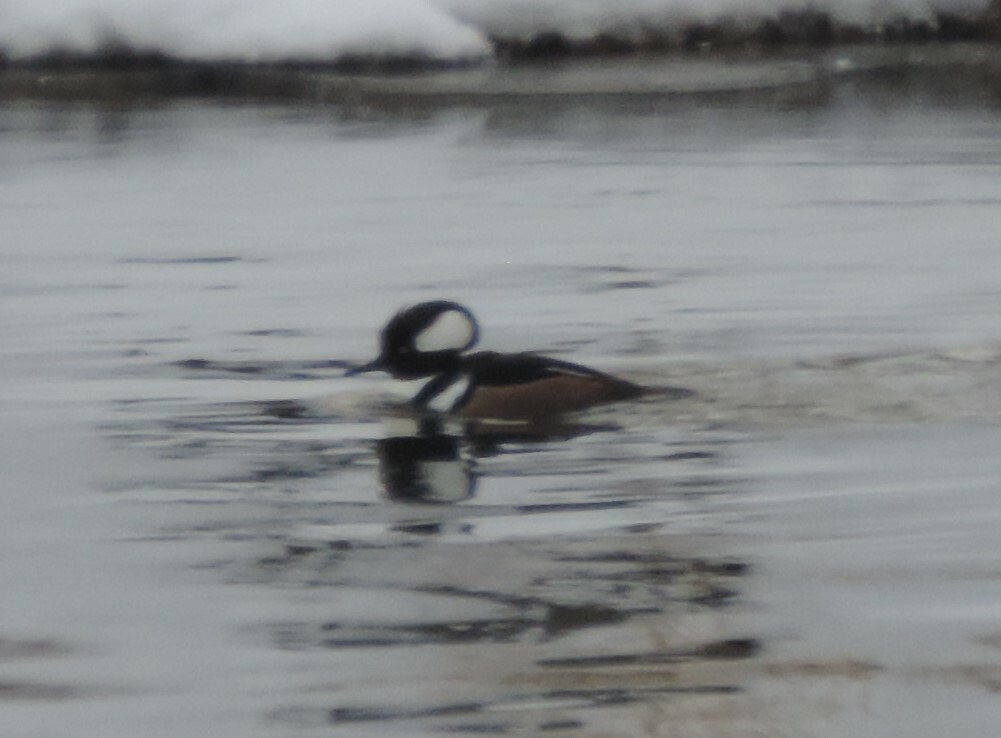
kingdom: Animalia
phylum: Chordata
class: Aves
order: Anseriformes
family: Anatidae
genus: Lophodytes
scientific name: Lophodytes cucullatus
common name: Hooded merganser
